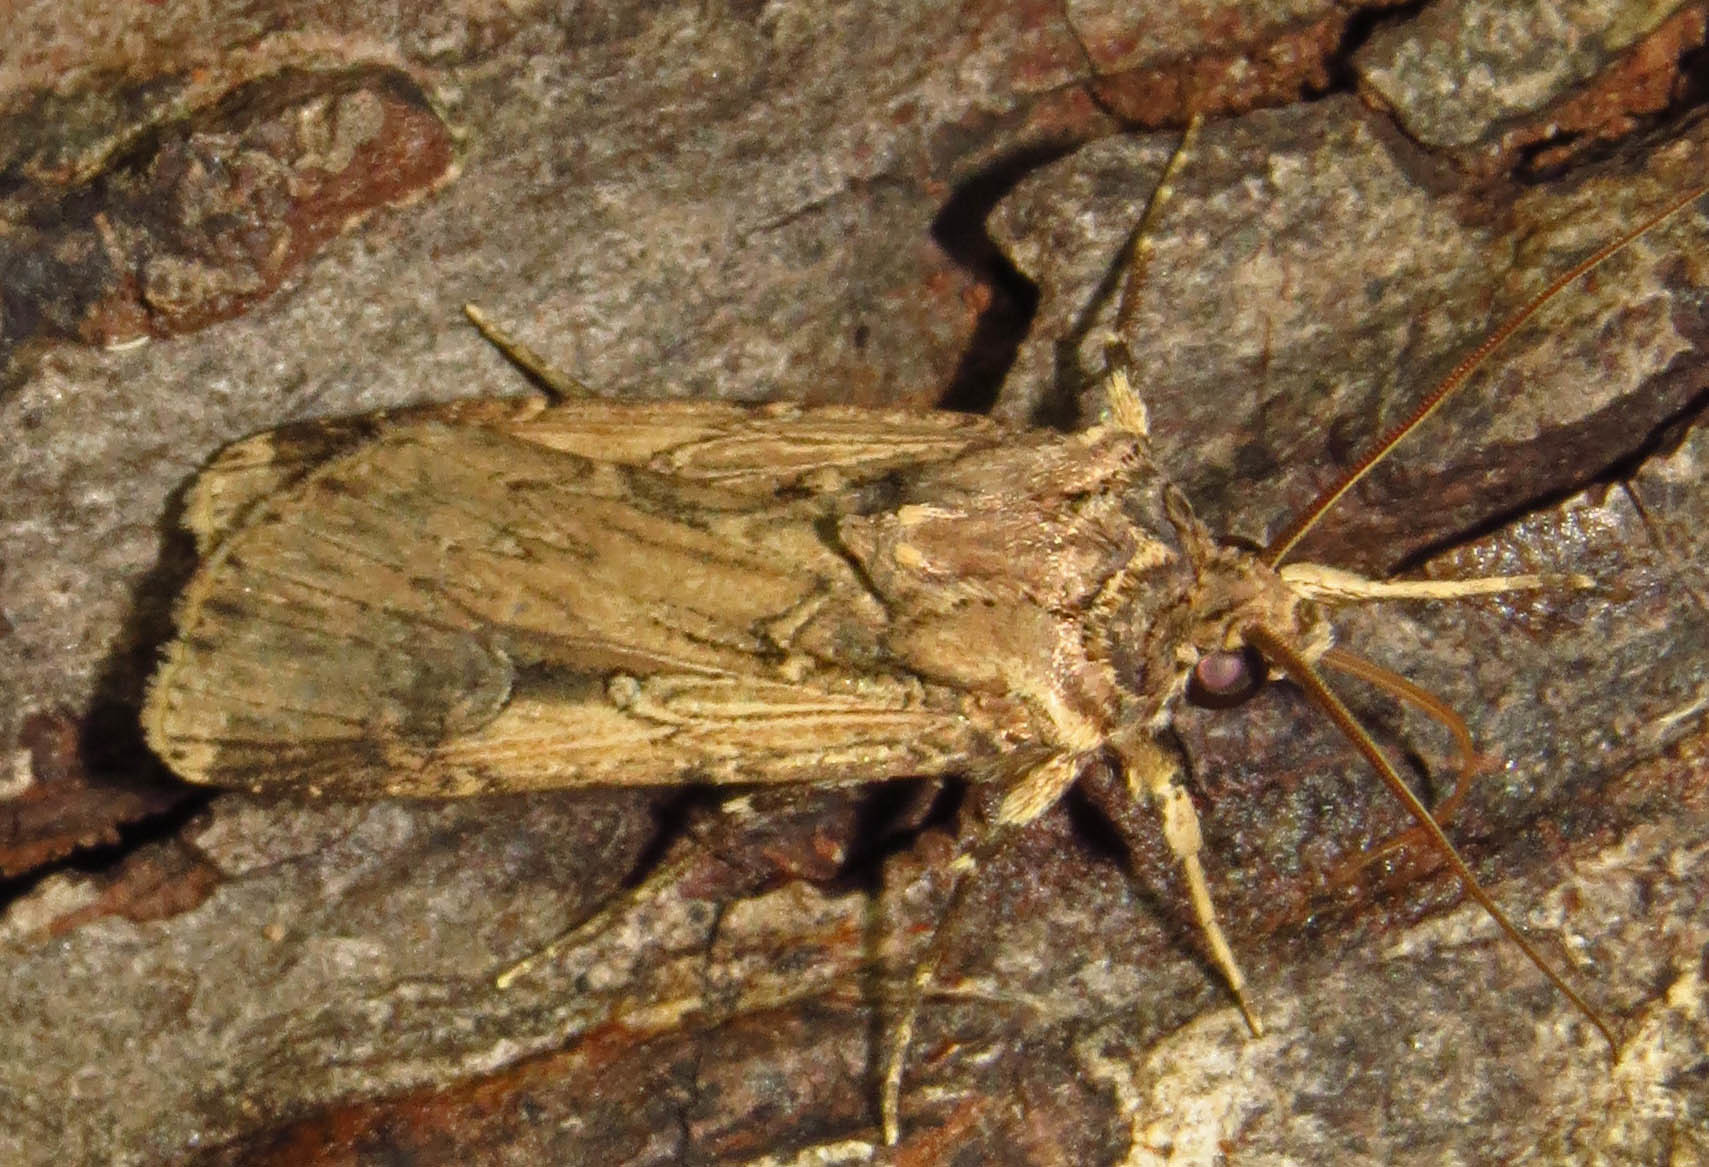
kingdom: Animalia
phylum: Arthropoda
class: Insecta
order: Lepidoptera
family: Noctuidae
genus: Feltia
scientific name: Feltia subterranea
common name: Granulate cutworm
